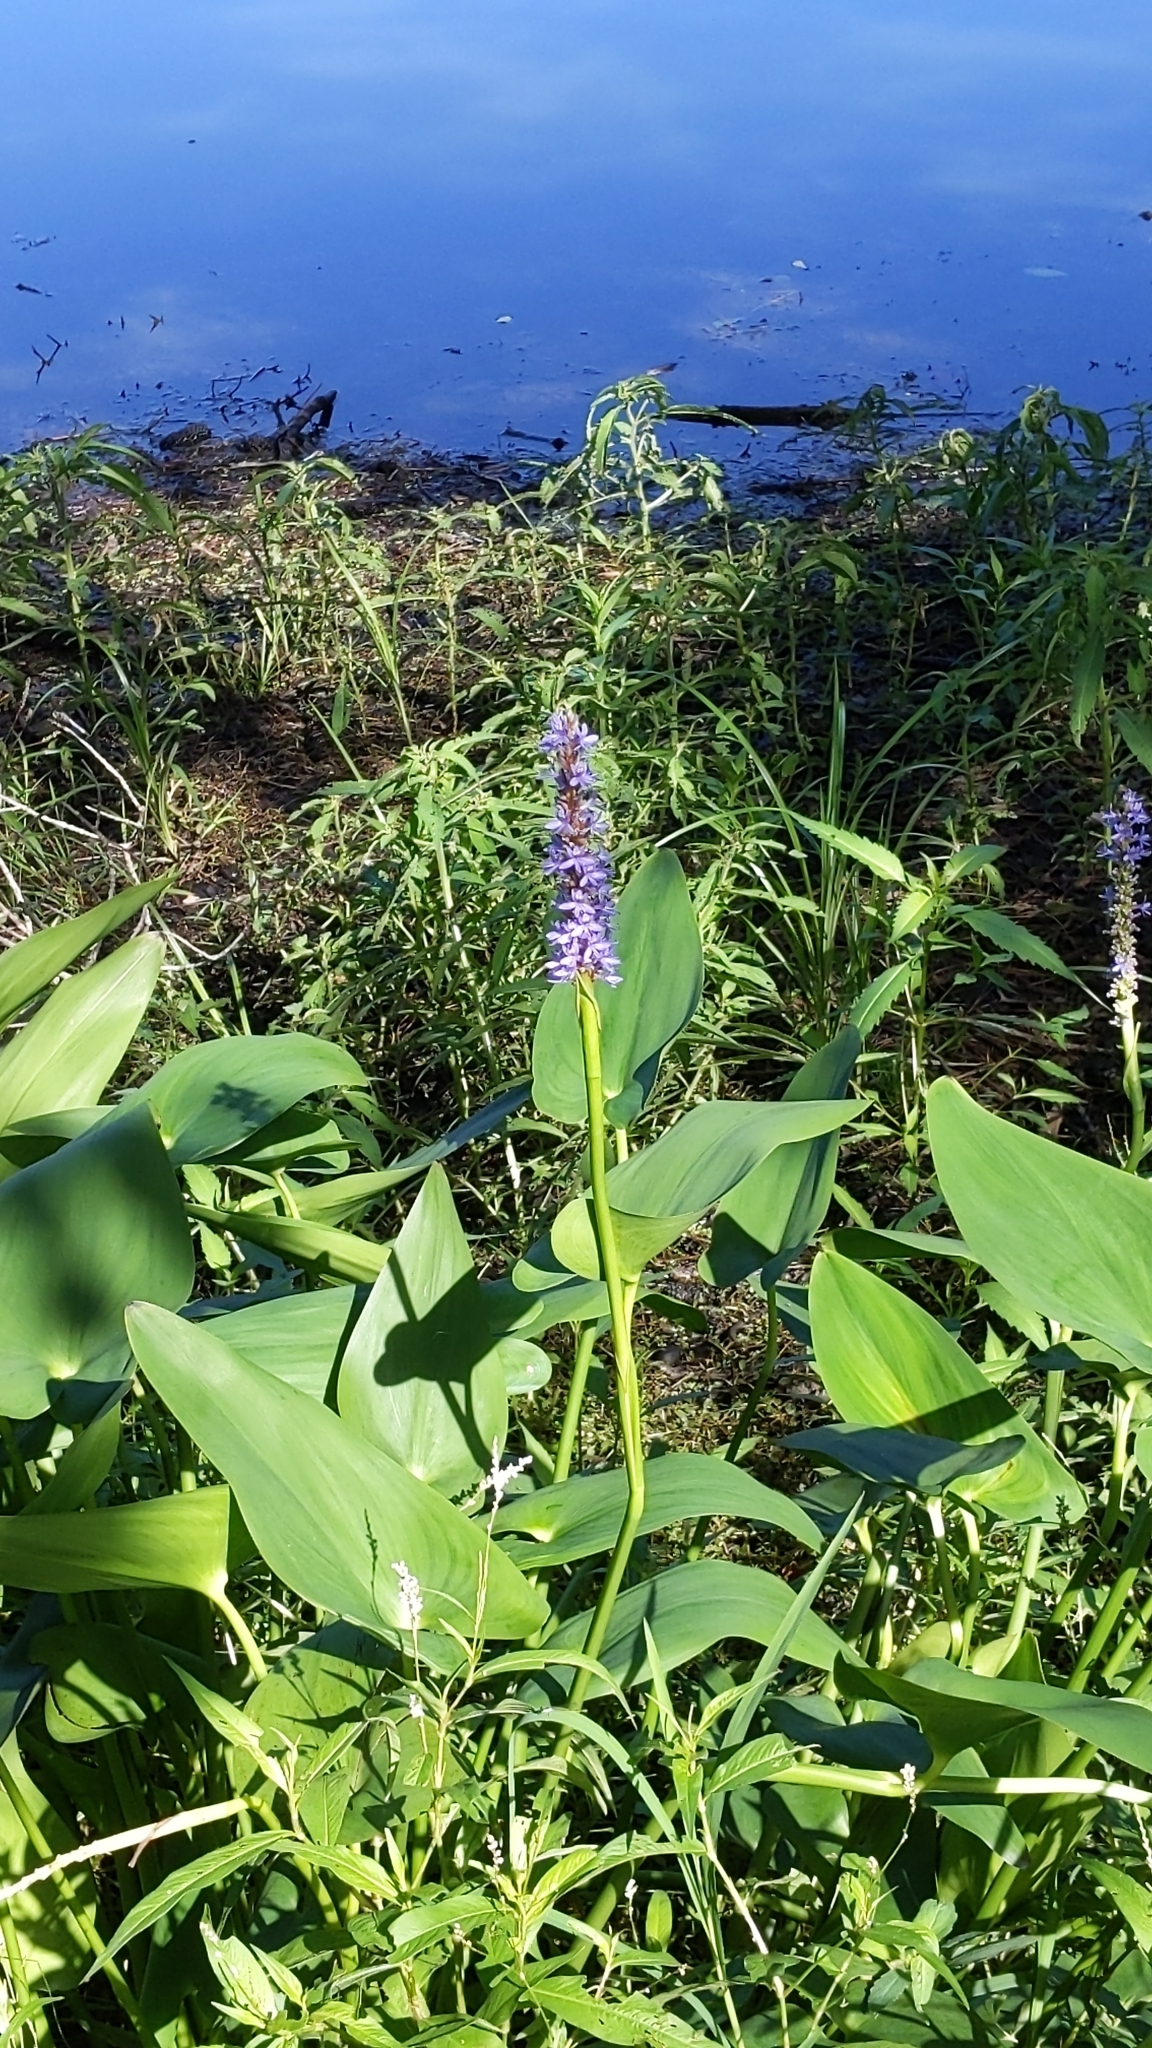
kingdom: Plantae
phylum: Tracheophyta
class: Liliopsida
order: Commelinales
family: Pontederiaceae
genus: Pontederia
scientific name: Pontederia cordata
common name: Pickerelweed
